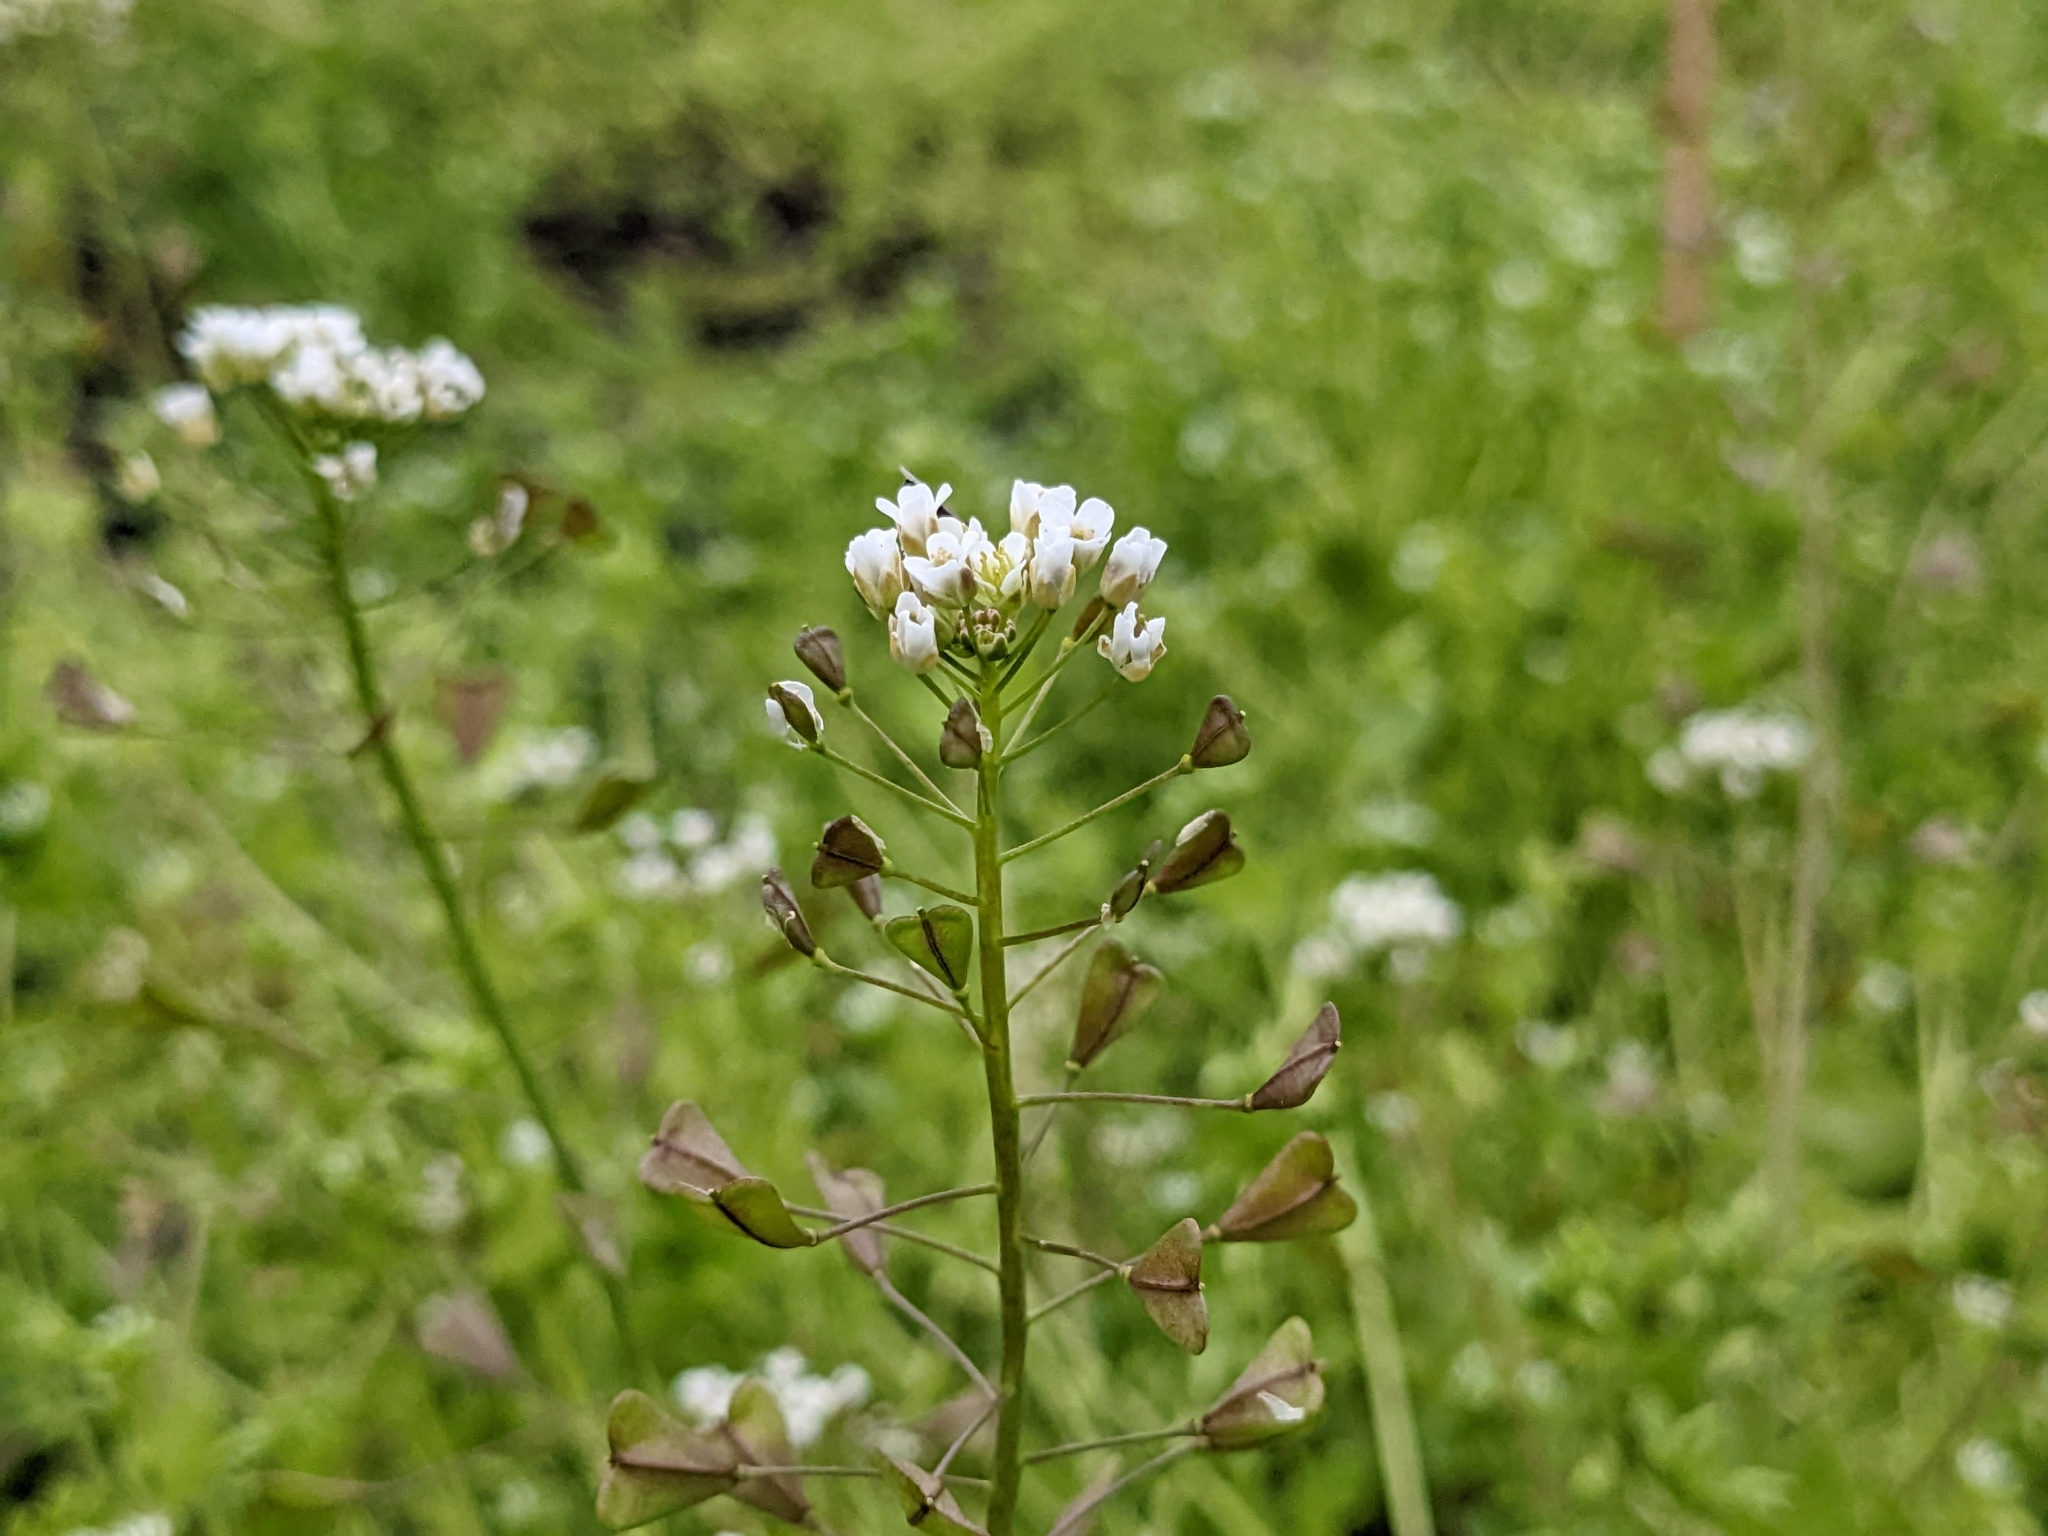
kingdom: Plantae
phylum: Tracheophyta
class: Magnoliopsida
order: Brassicales
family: Brassicaceae
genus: Capsella
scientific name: Capsella bursa-pastoris
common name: Shepherd's purse
